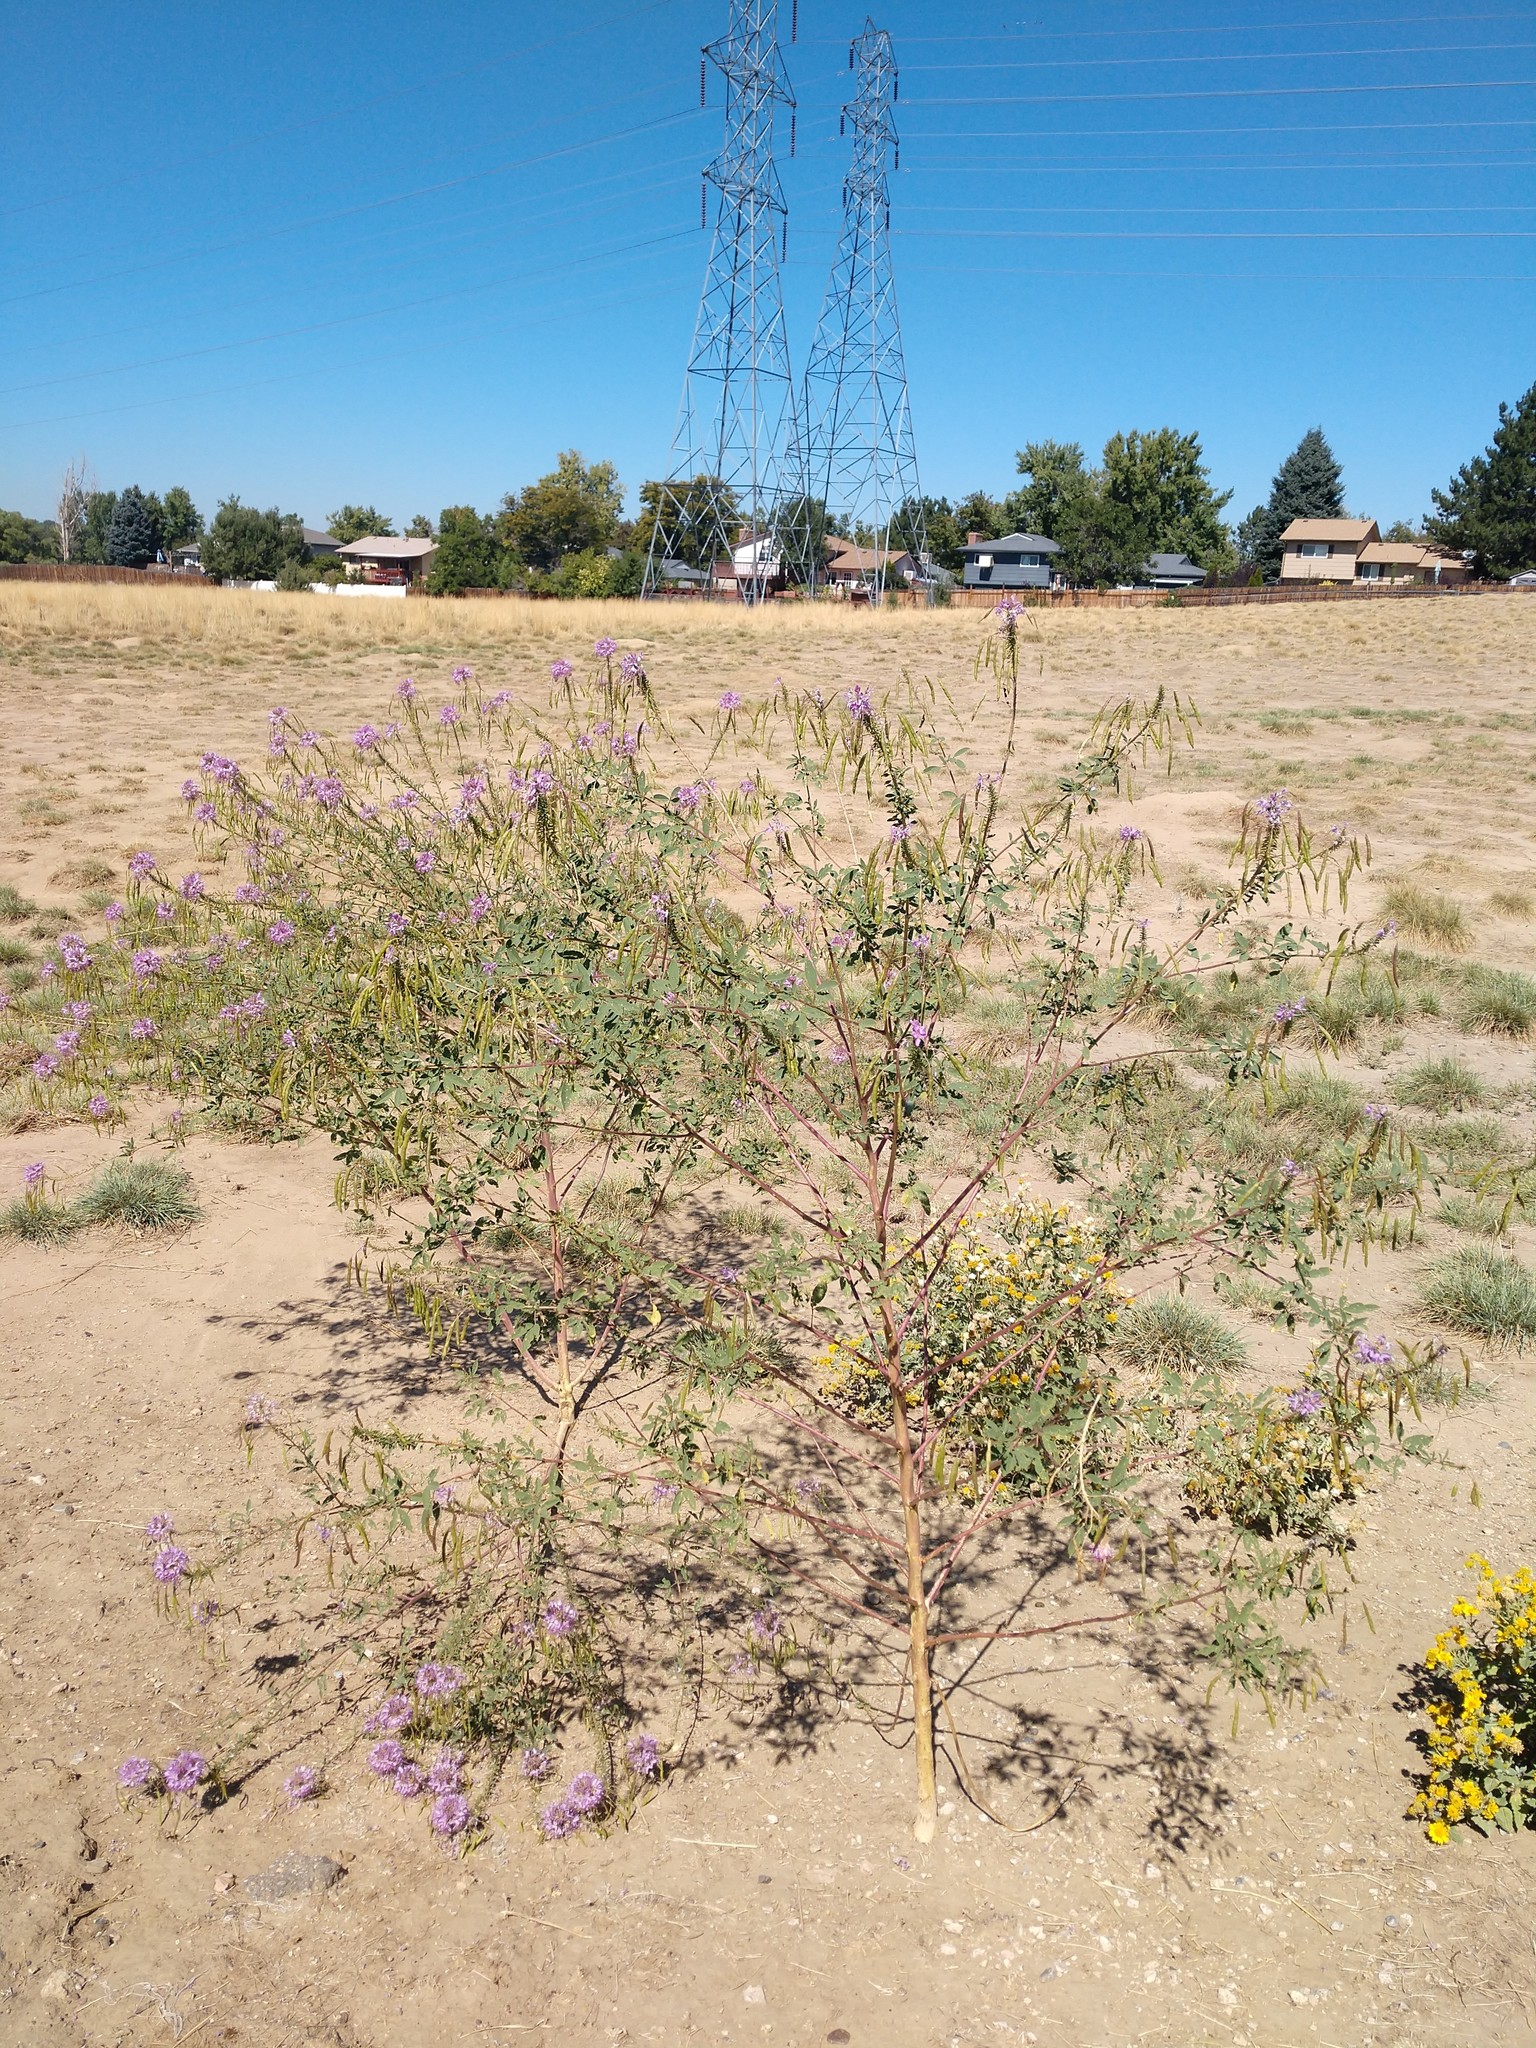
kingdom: Plantae
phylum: Tracheophyta
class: Magnoliopsida
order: Brassicales
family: Cleomaceae
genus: Cleomella
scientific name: Cleomella serrulata
